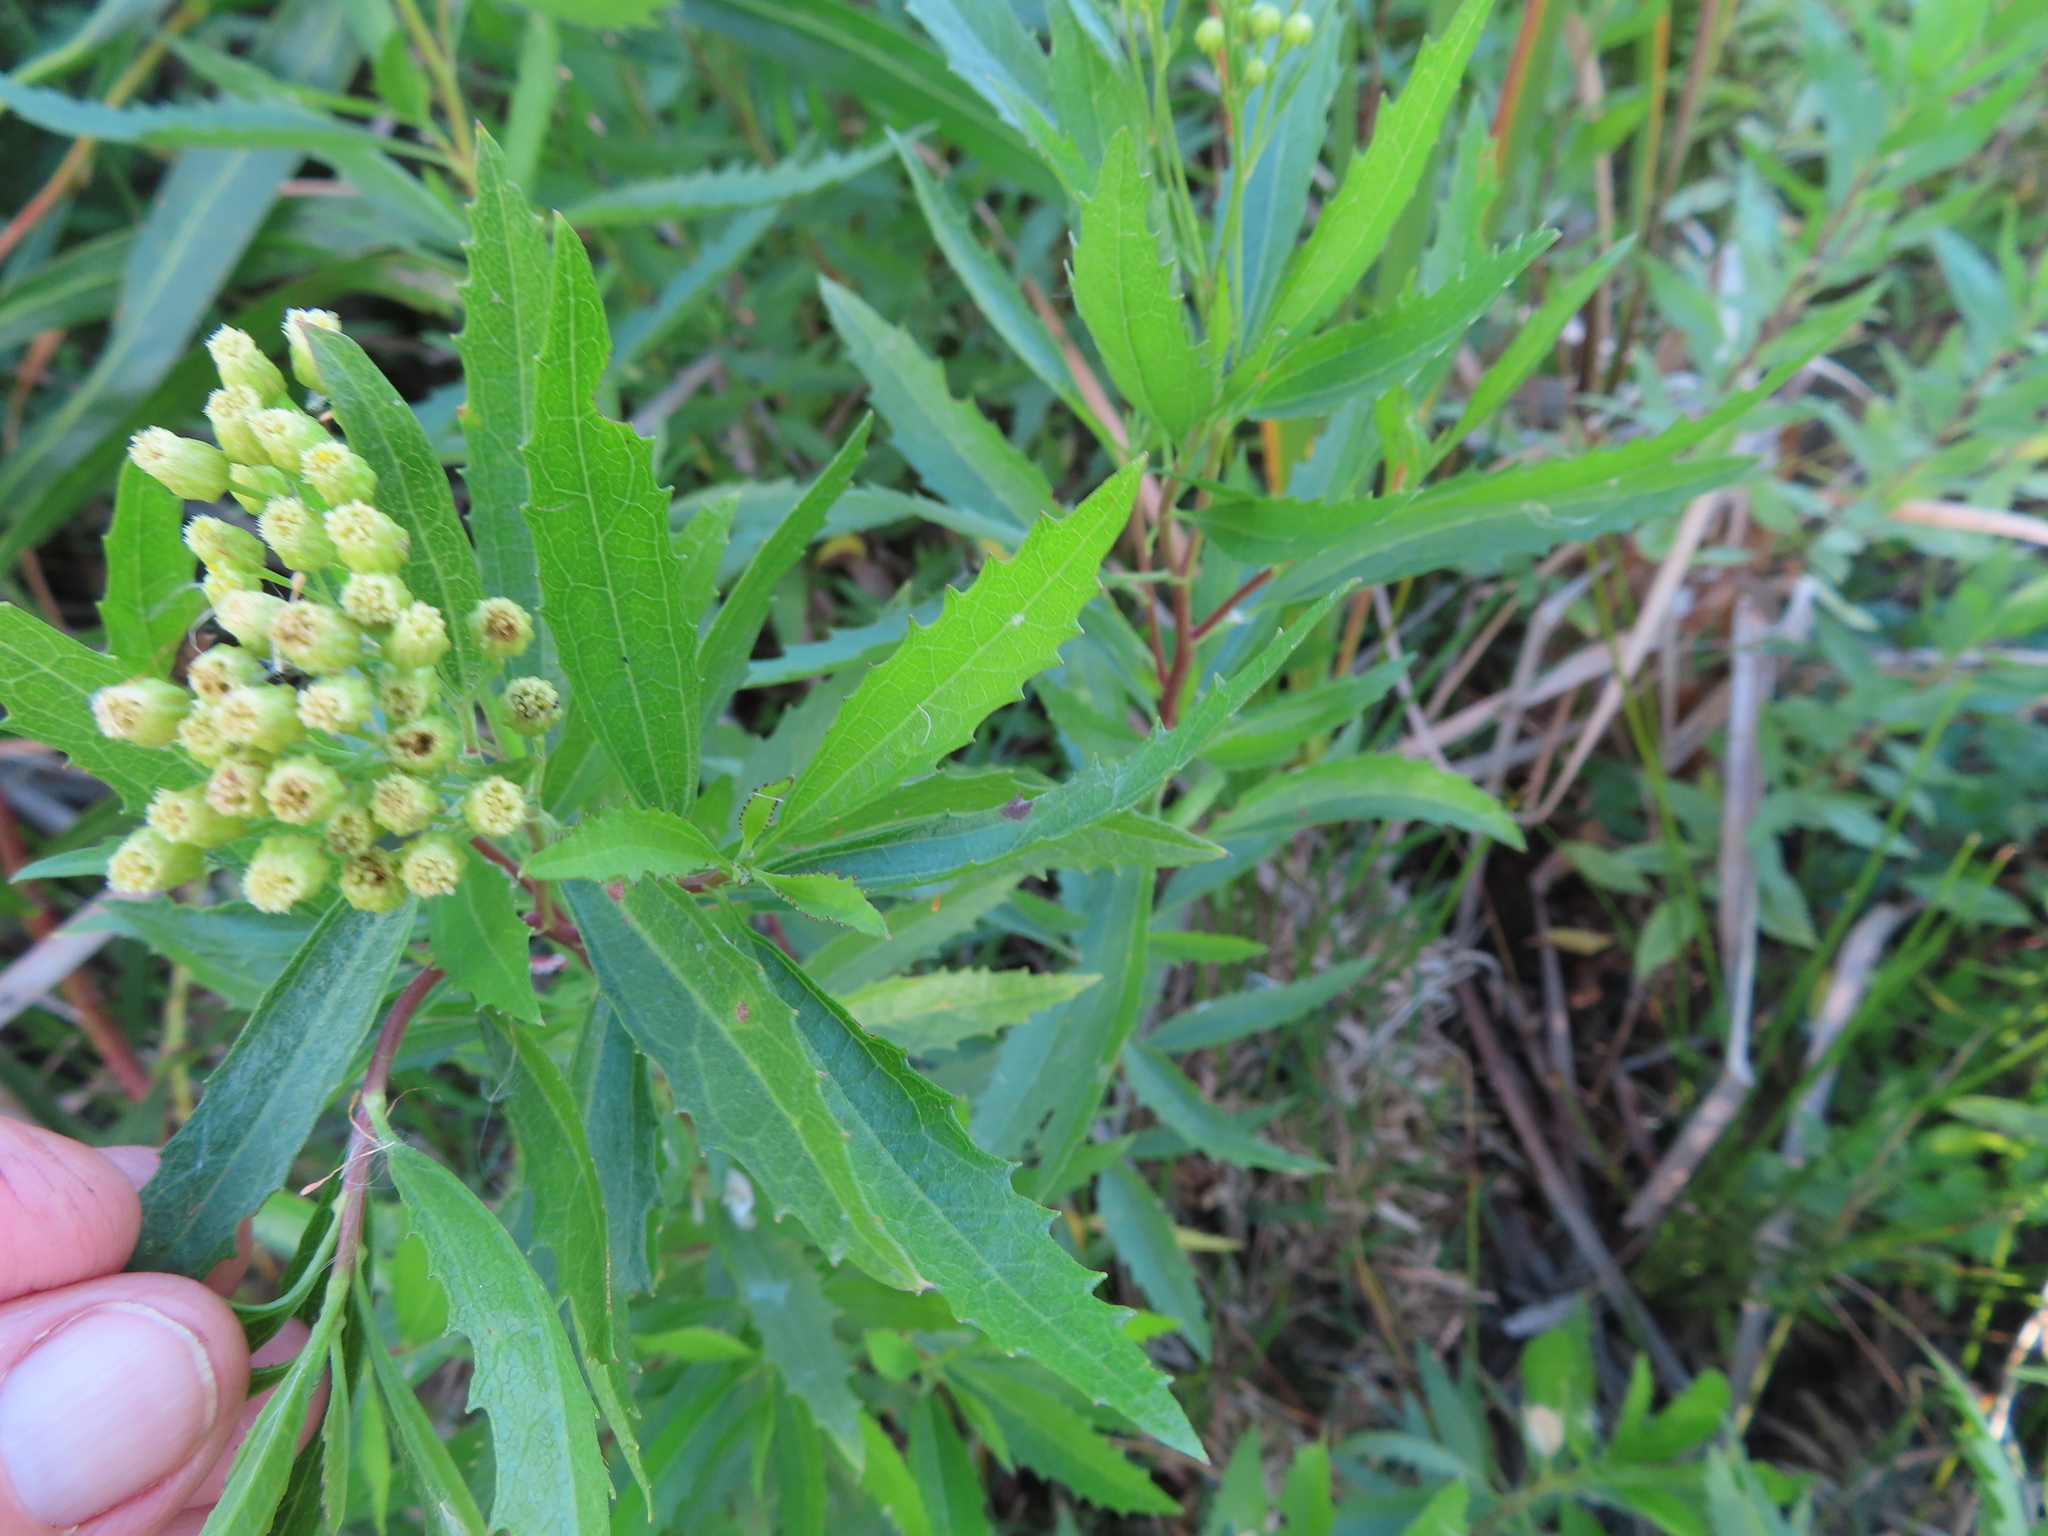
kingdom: Plantae
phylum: Tracheophyta
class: Magnoliopsida
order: Asterales
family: Asteraceae
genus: Nidorella
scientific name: Nidorella ivifolia
